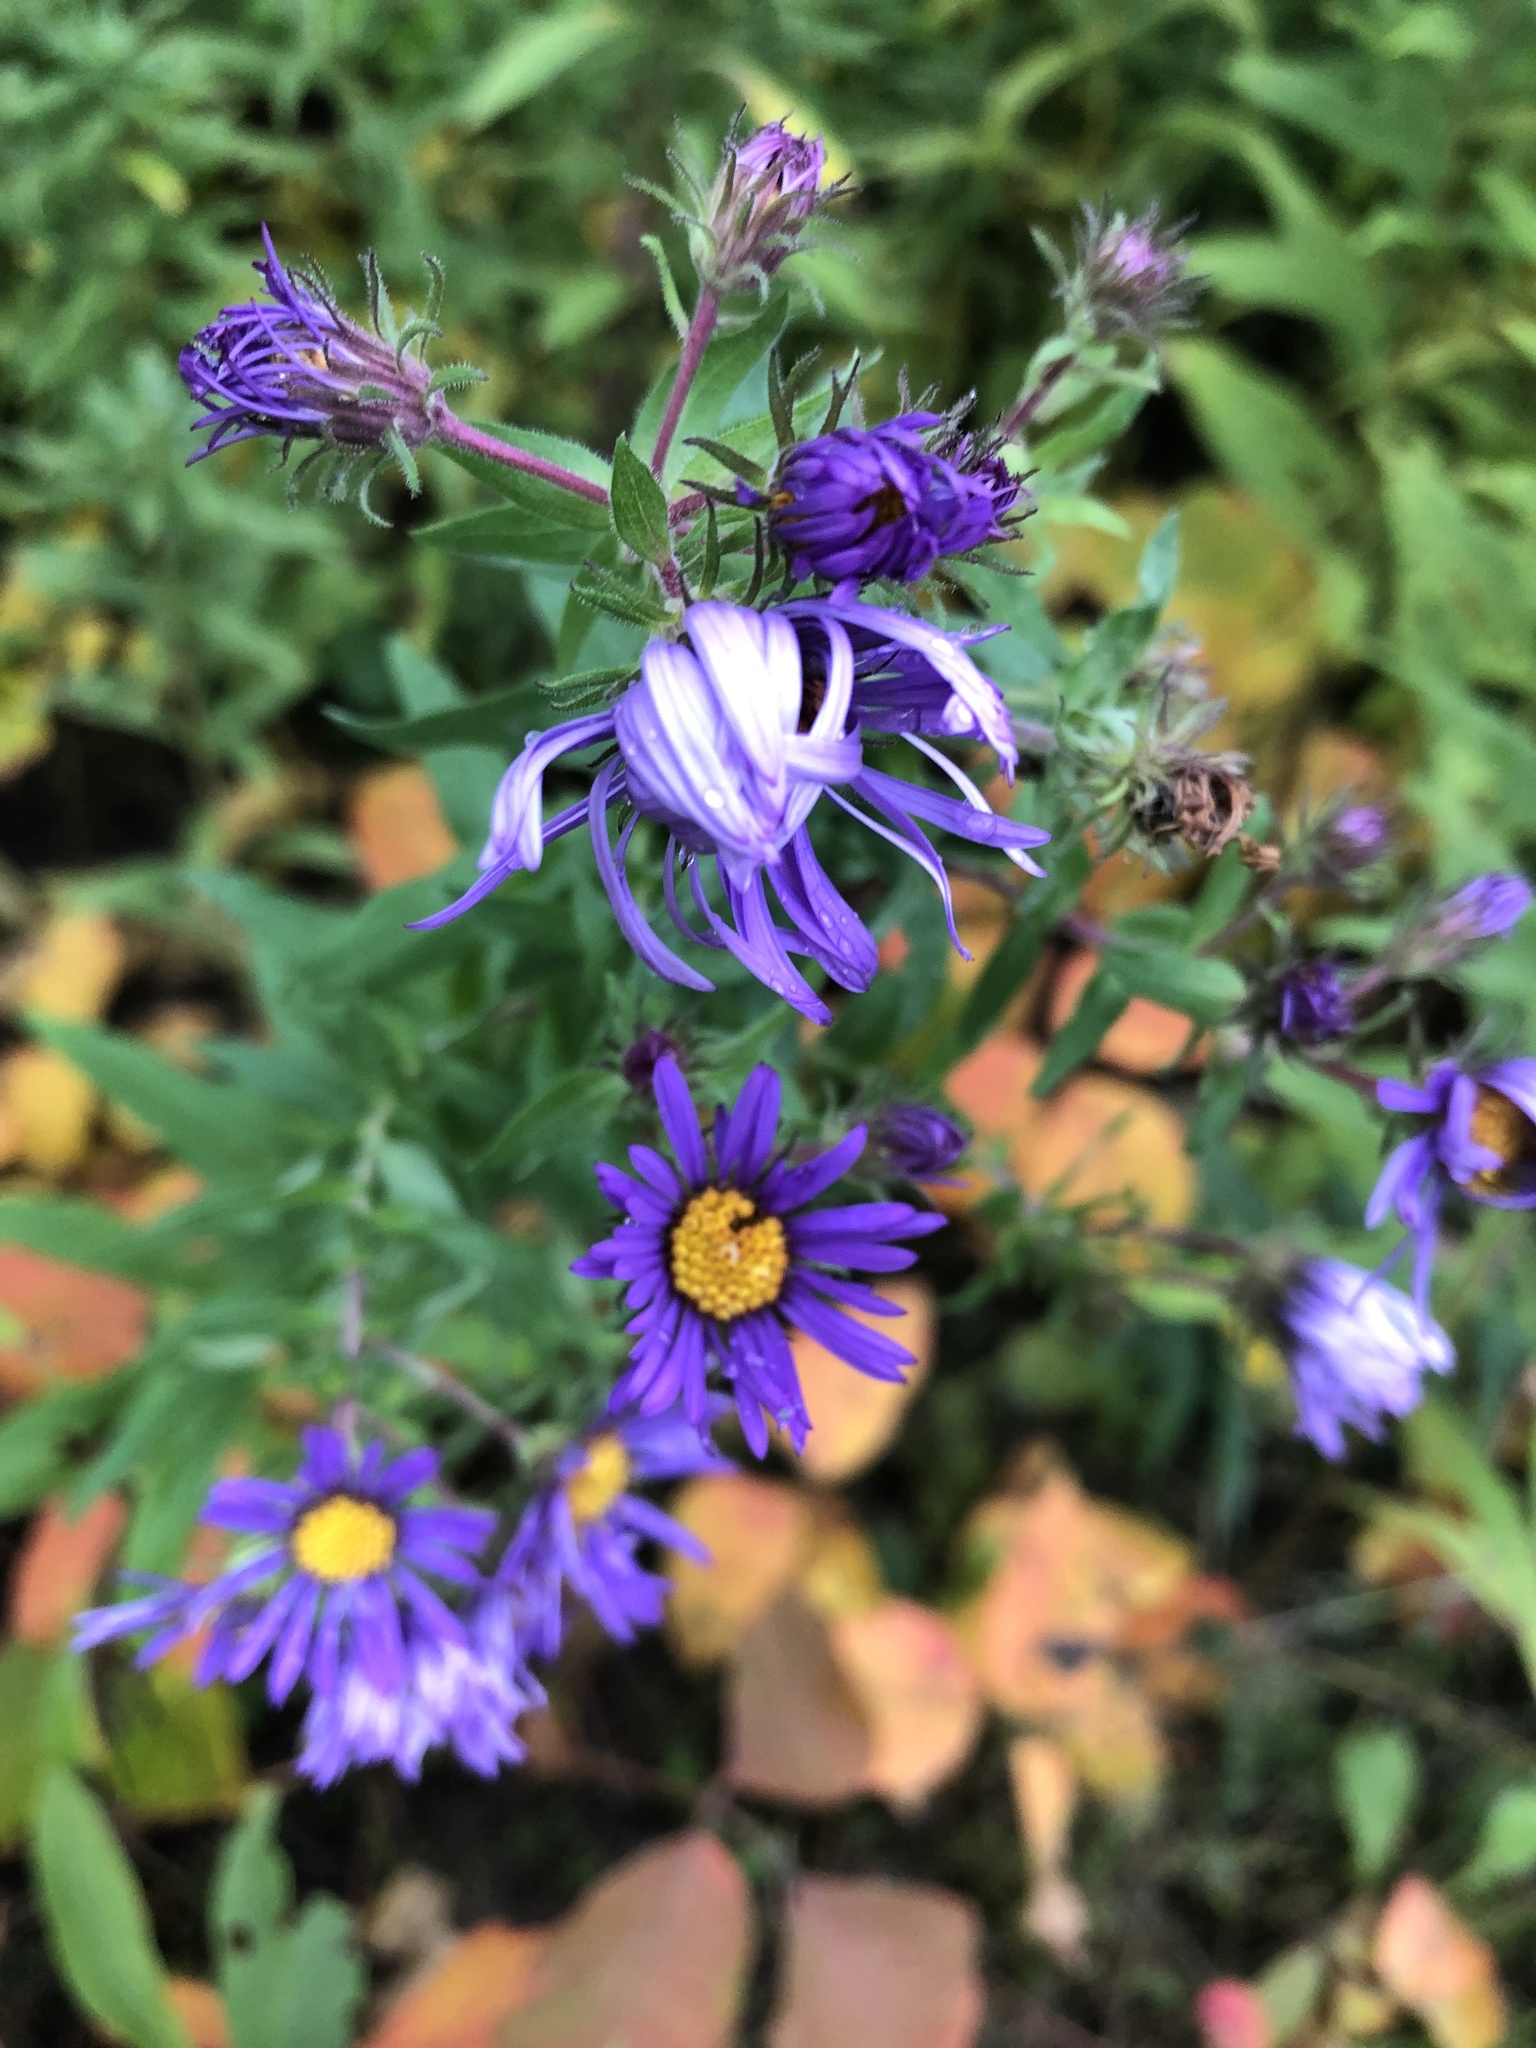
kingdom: Plantae
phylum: Tracheophyta
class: Magnoliopsida
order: Asterales
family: Asteraceae
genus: Symphyotrichum
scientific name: Symphyotrichum novae-angliae
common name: Michaelmas daisy
